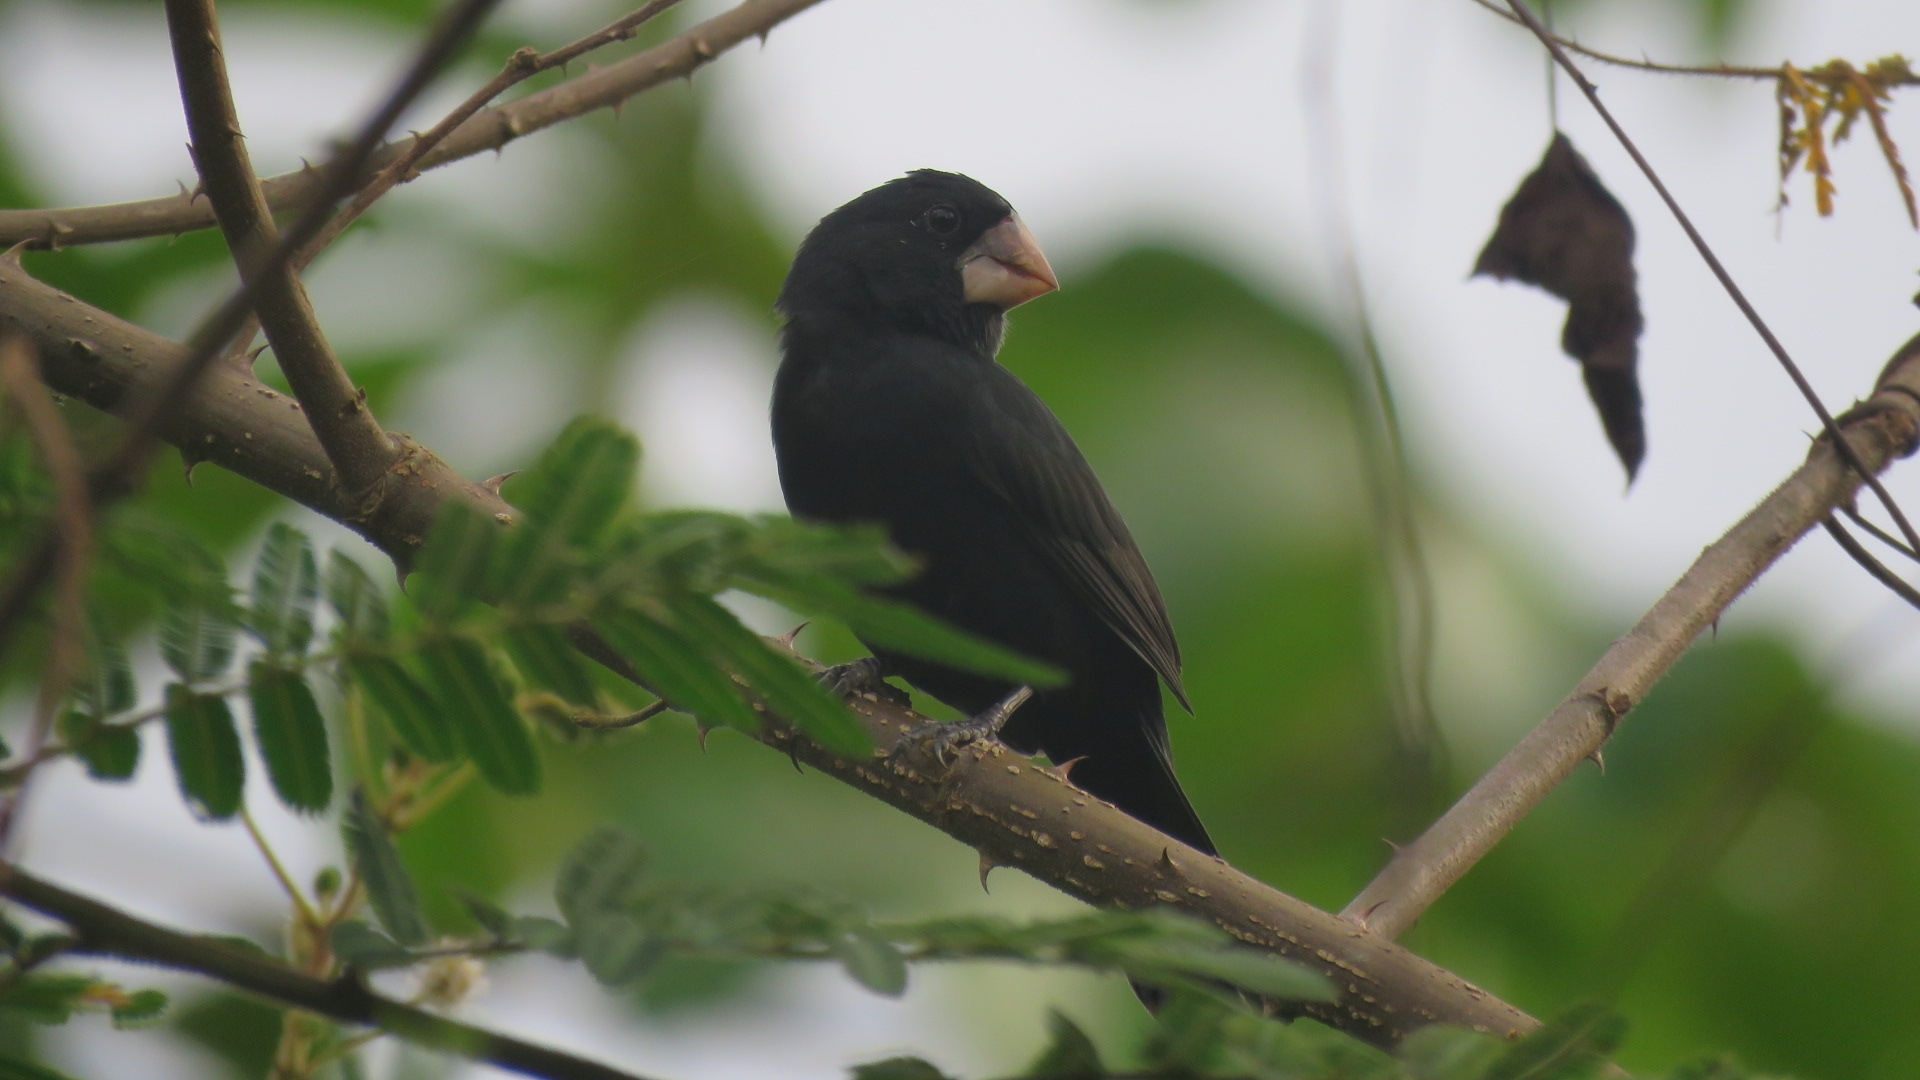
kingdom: Animalia
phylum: Chordata
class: Aves
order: Passeriformes
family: Thraupidae
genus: Sporophila
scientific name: Sporophila nuttingi
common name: Nicaraguan seed-finch
